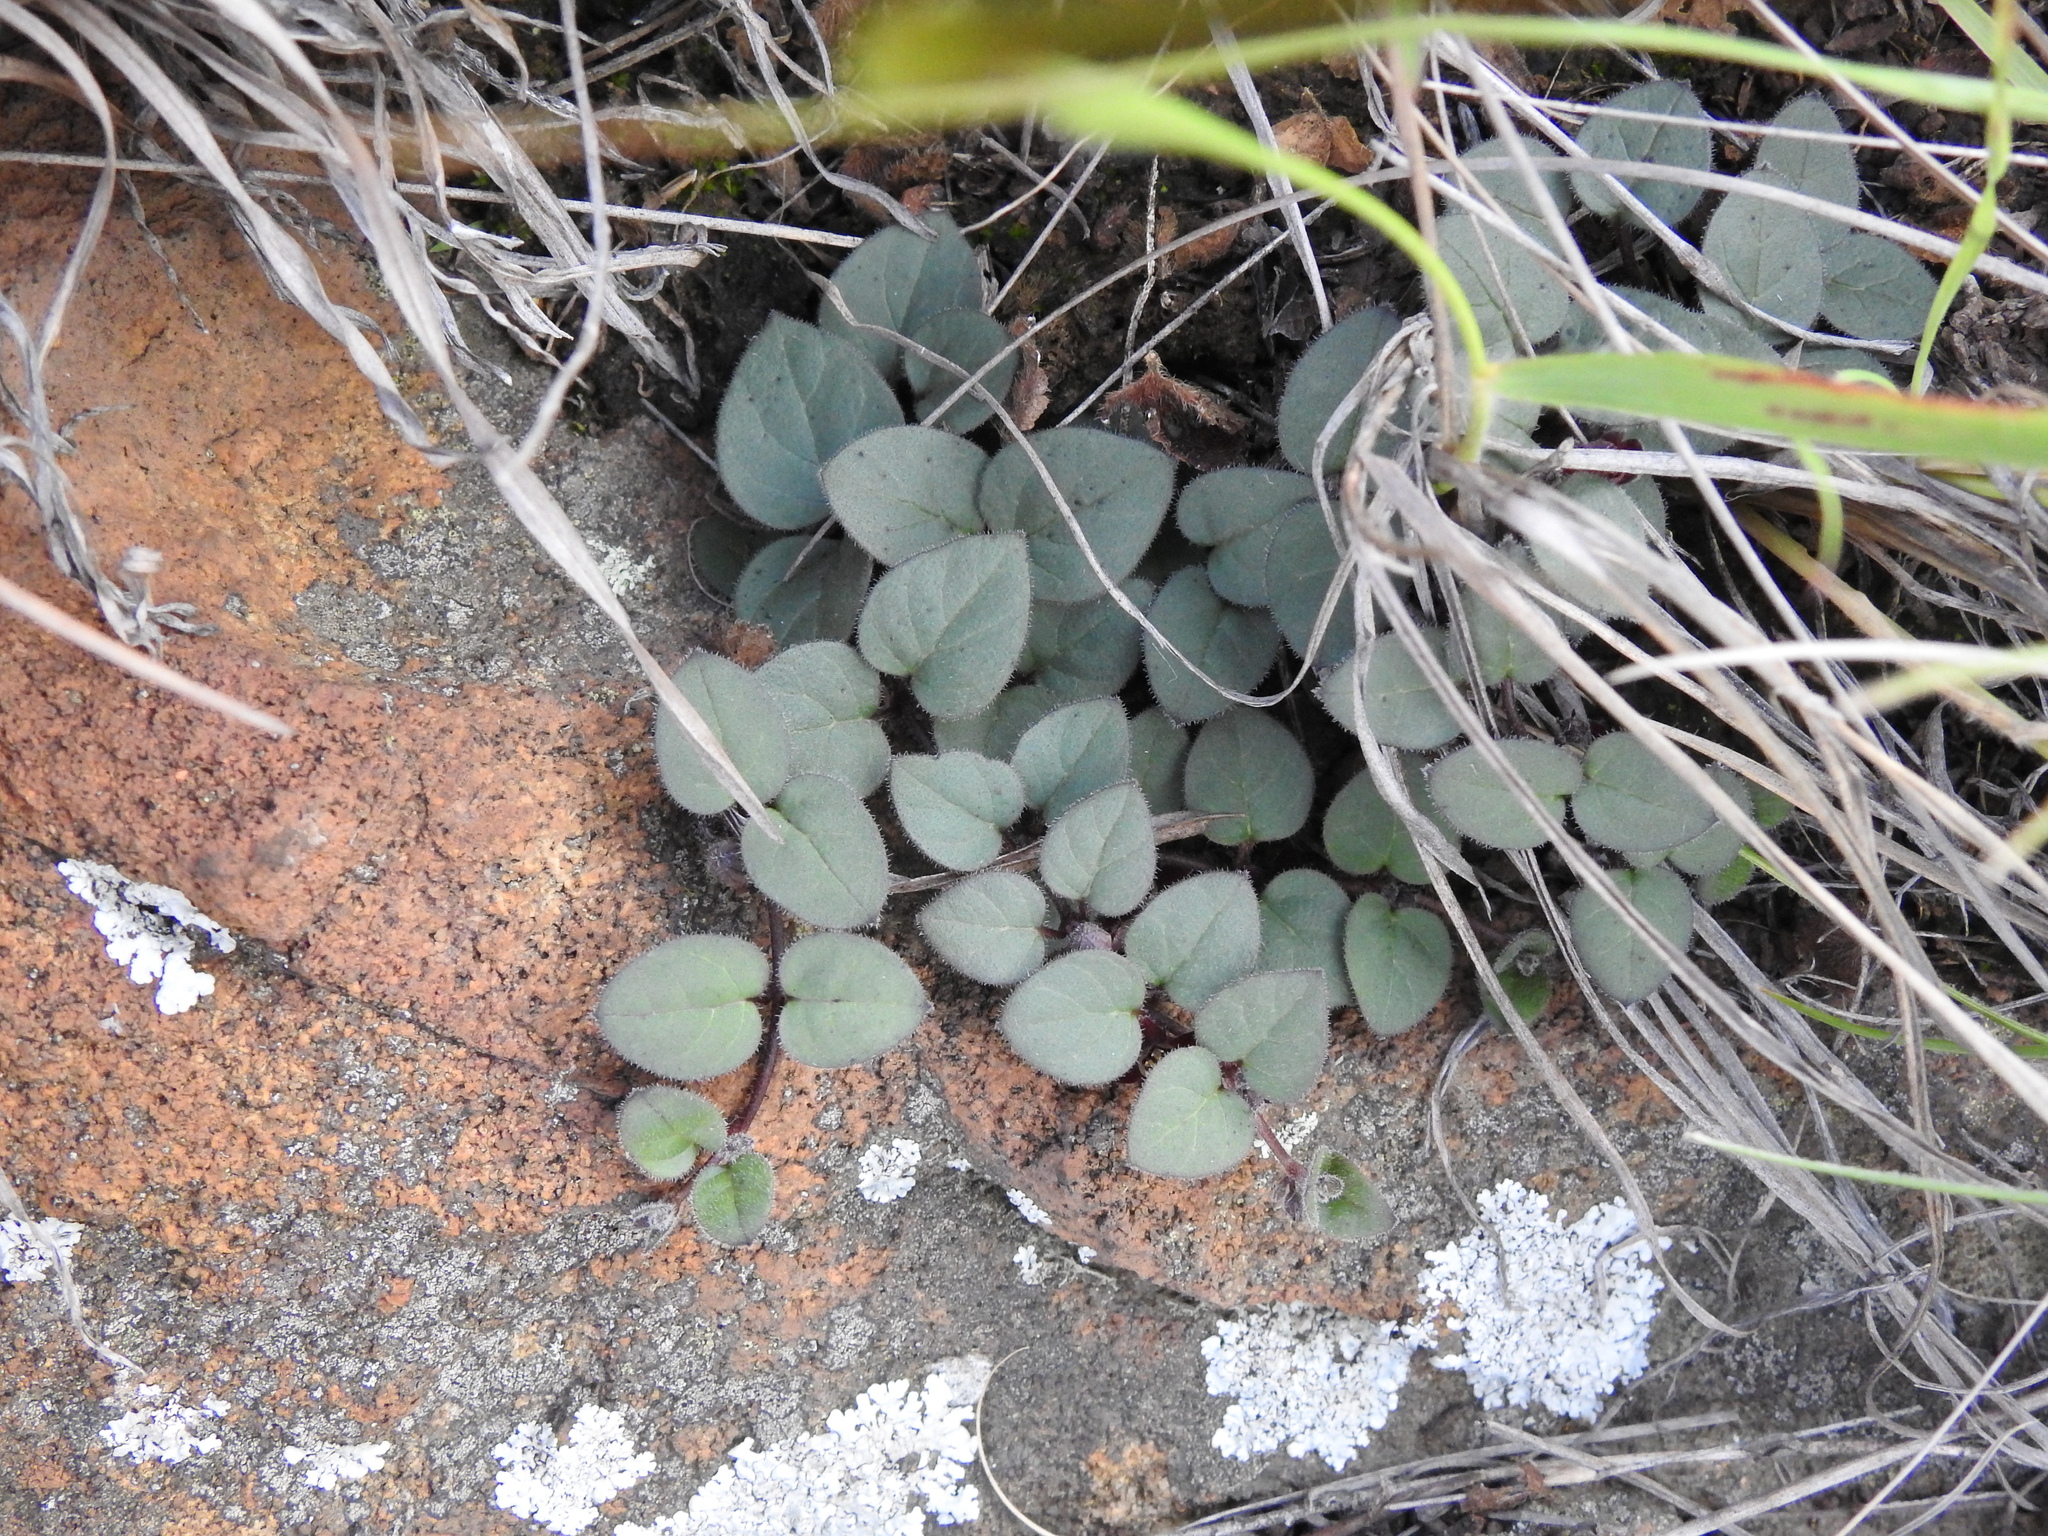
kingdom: Plantae
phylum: Tracheophyta
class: Magnoliopsida
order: Gentianales
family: Apocynaceae
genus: Ceropegia
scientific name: Ceropegia swazica
